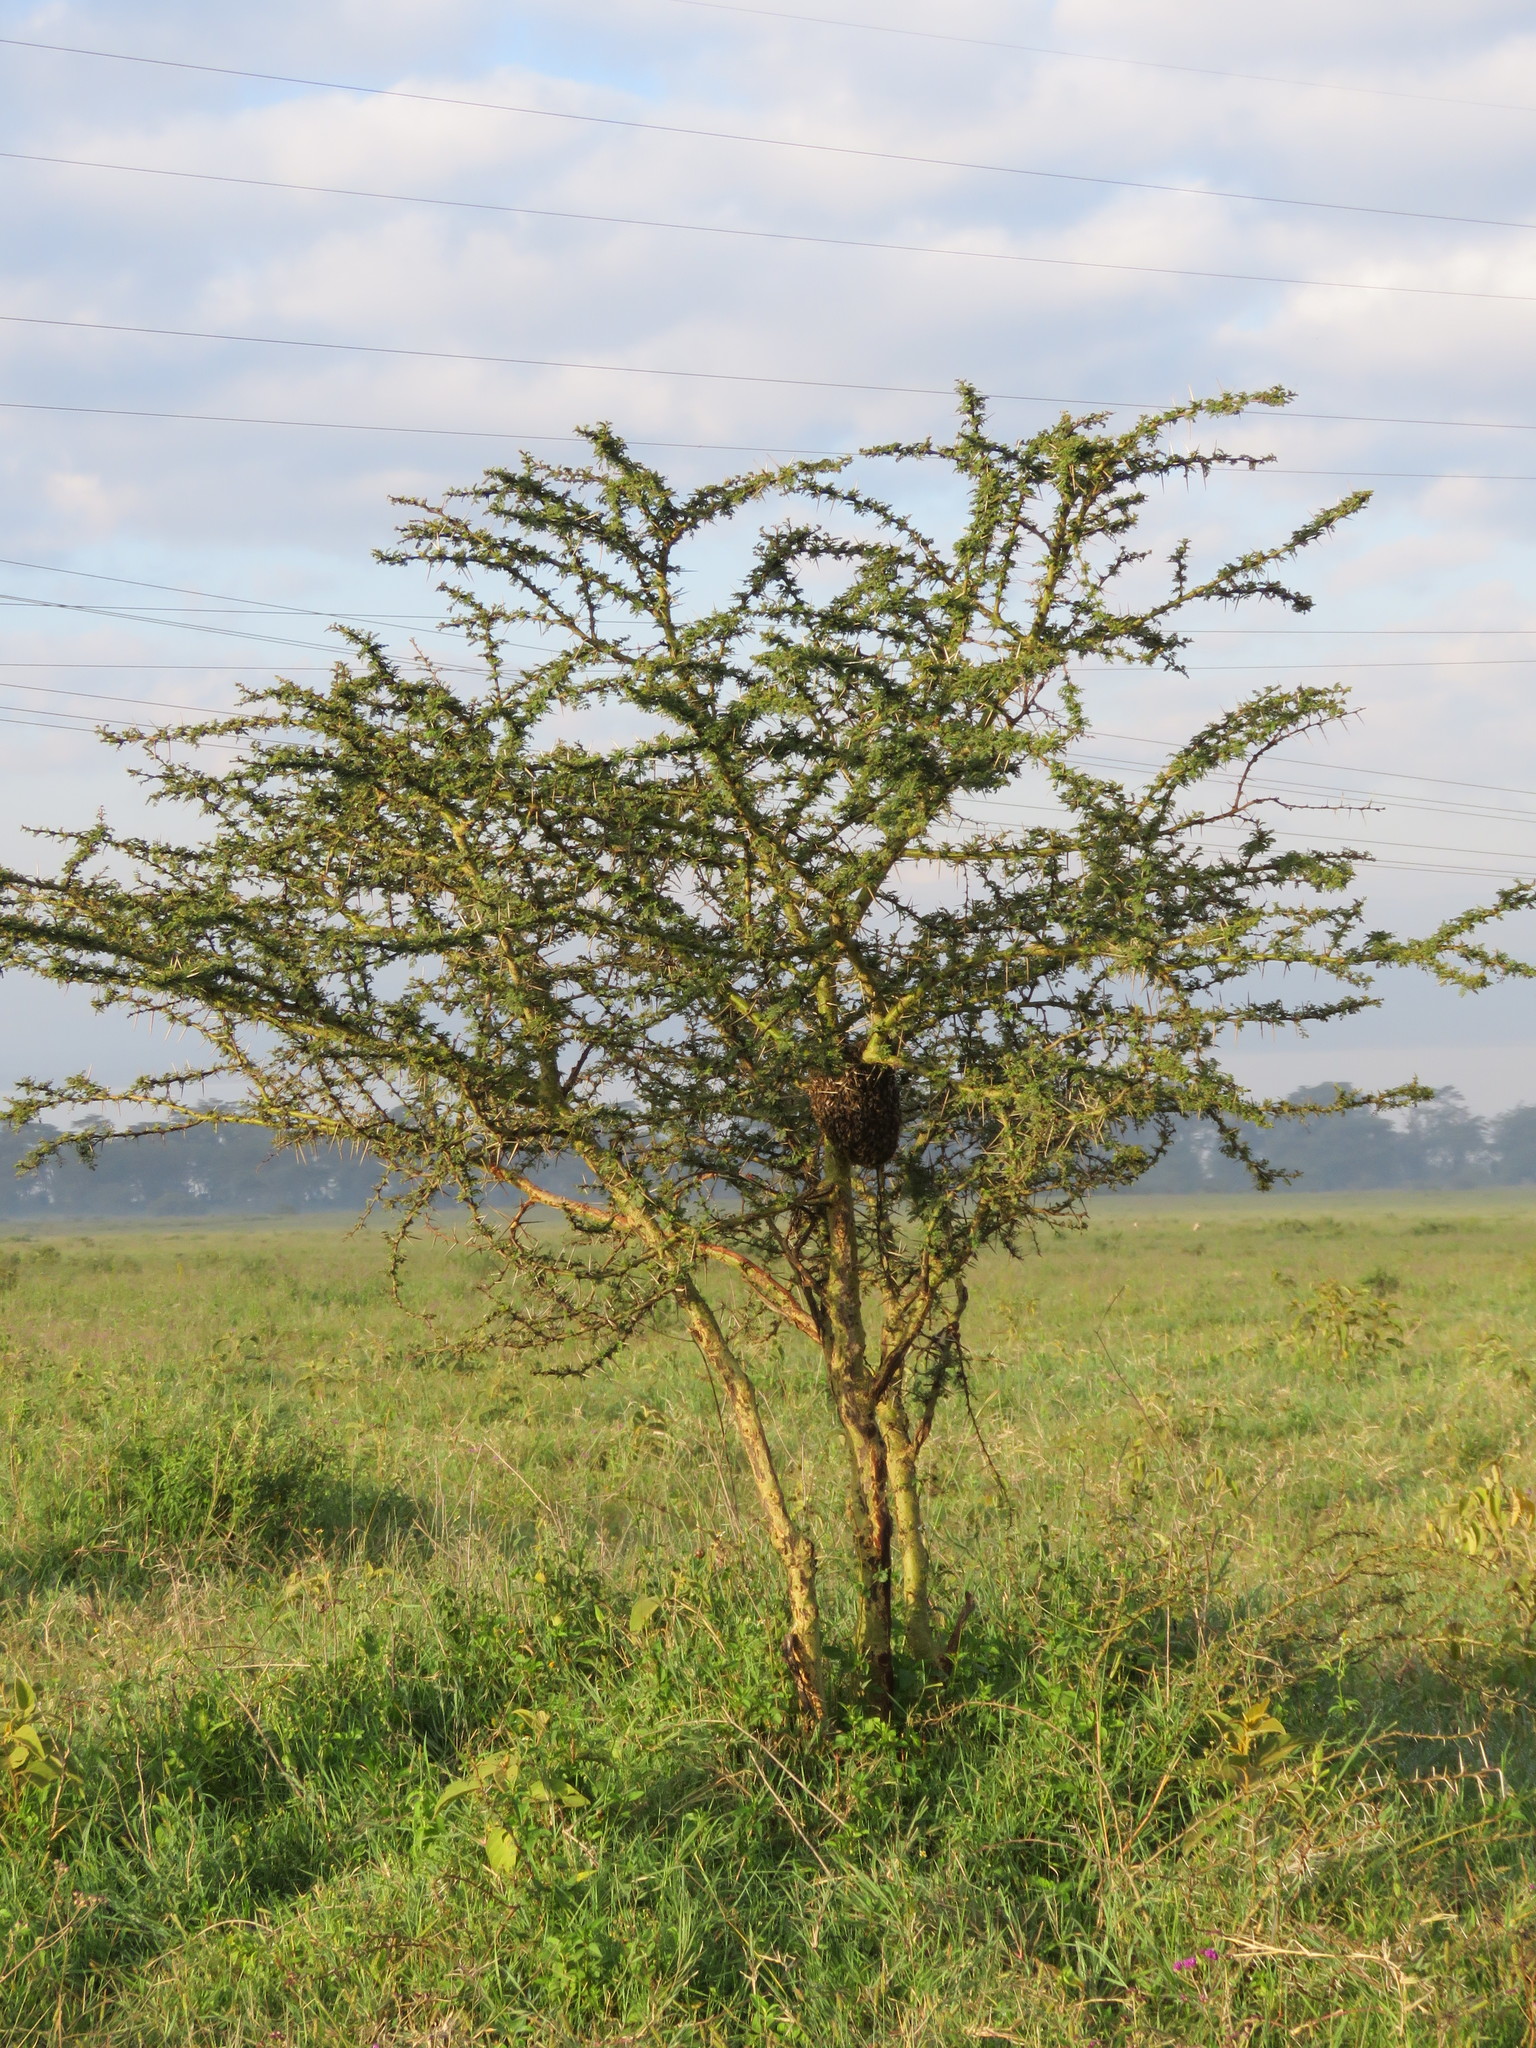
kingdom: Animalia
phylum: Arthropoda
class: Insecta
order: Hymenoptera
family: Apidae
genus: Apis
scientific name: Apis mellifera
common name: Honey bee
